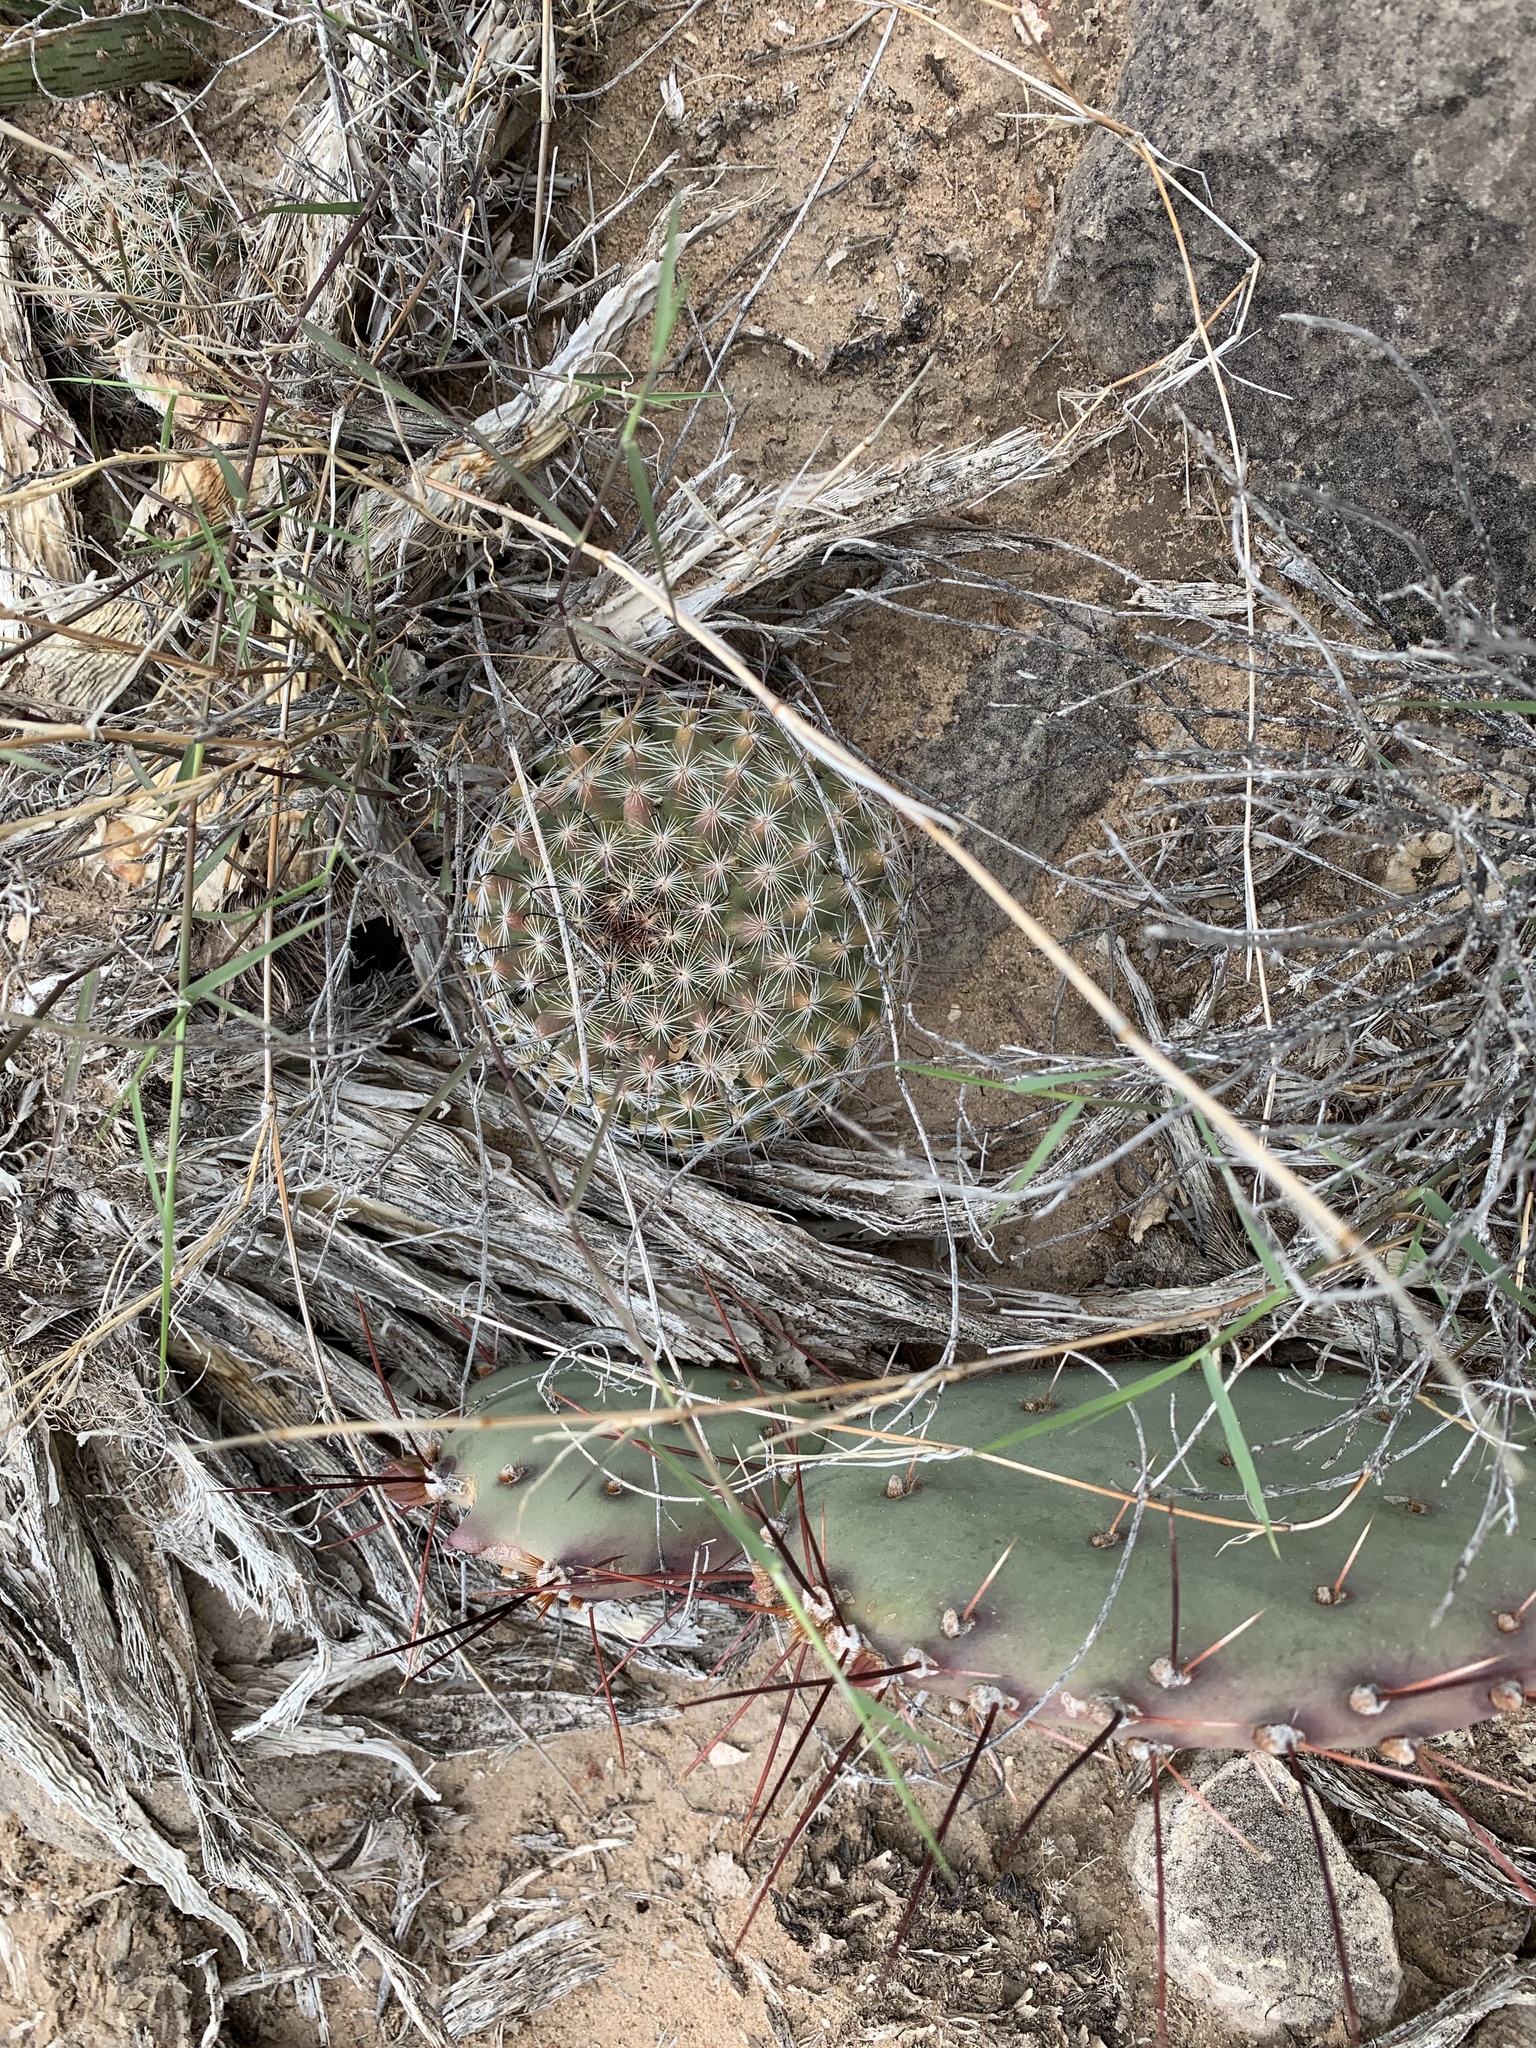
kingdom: Plantae
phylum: Tracheophyta
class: Magnoliopsida
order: Caryophyllales
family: Cactaceae
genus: Cochemiea
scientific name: Cochemiea grahamii
